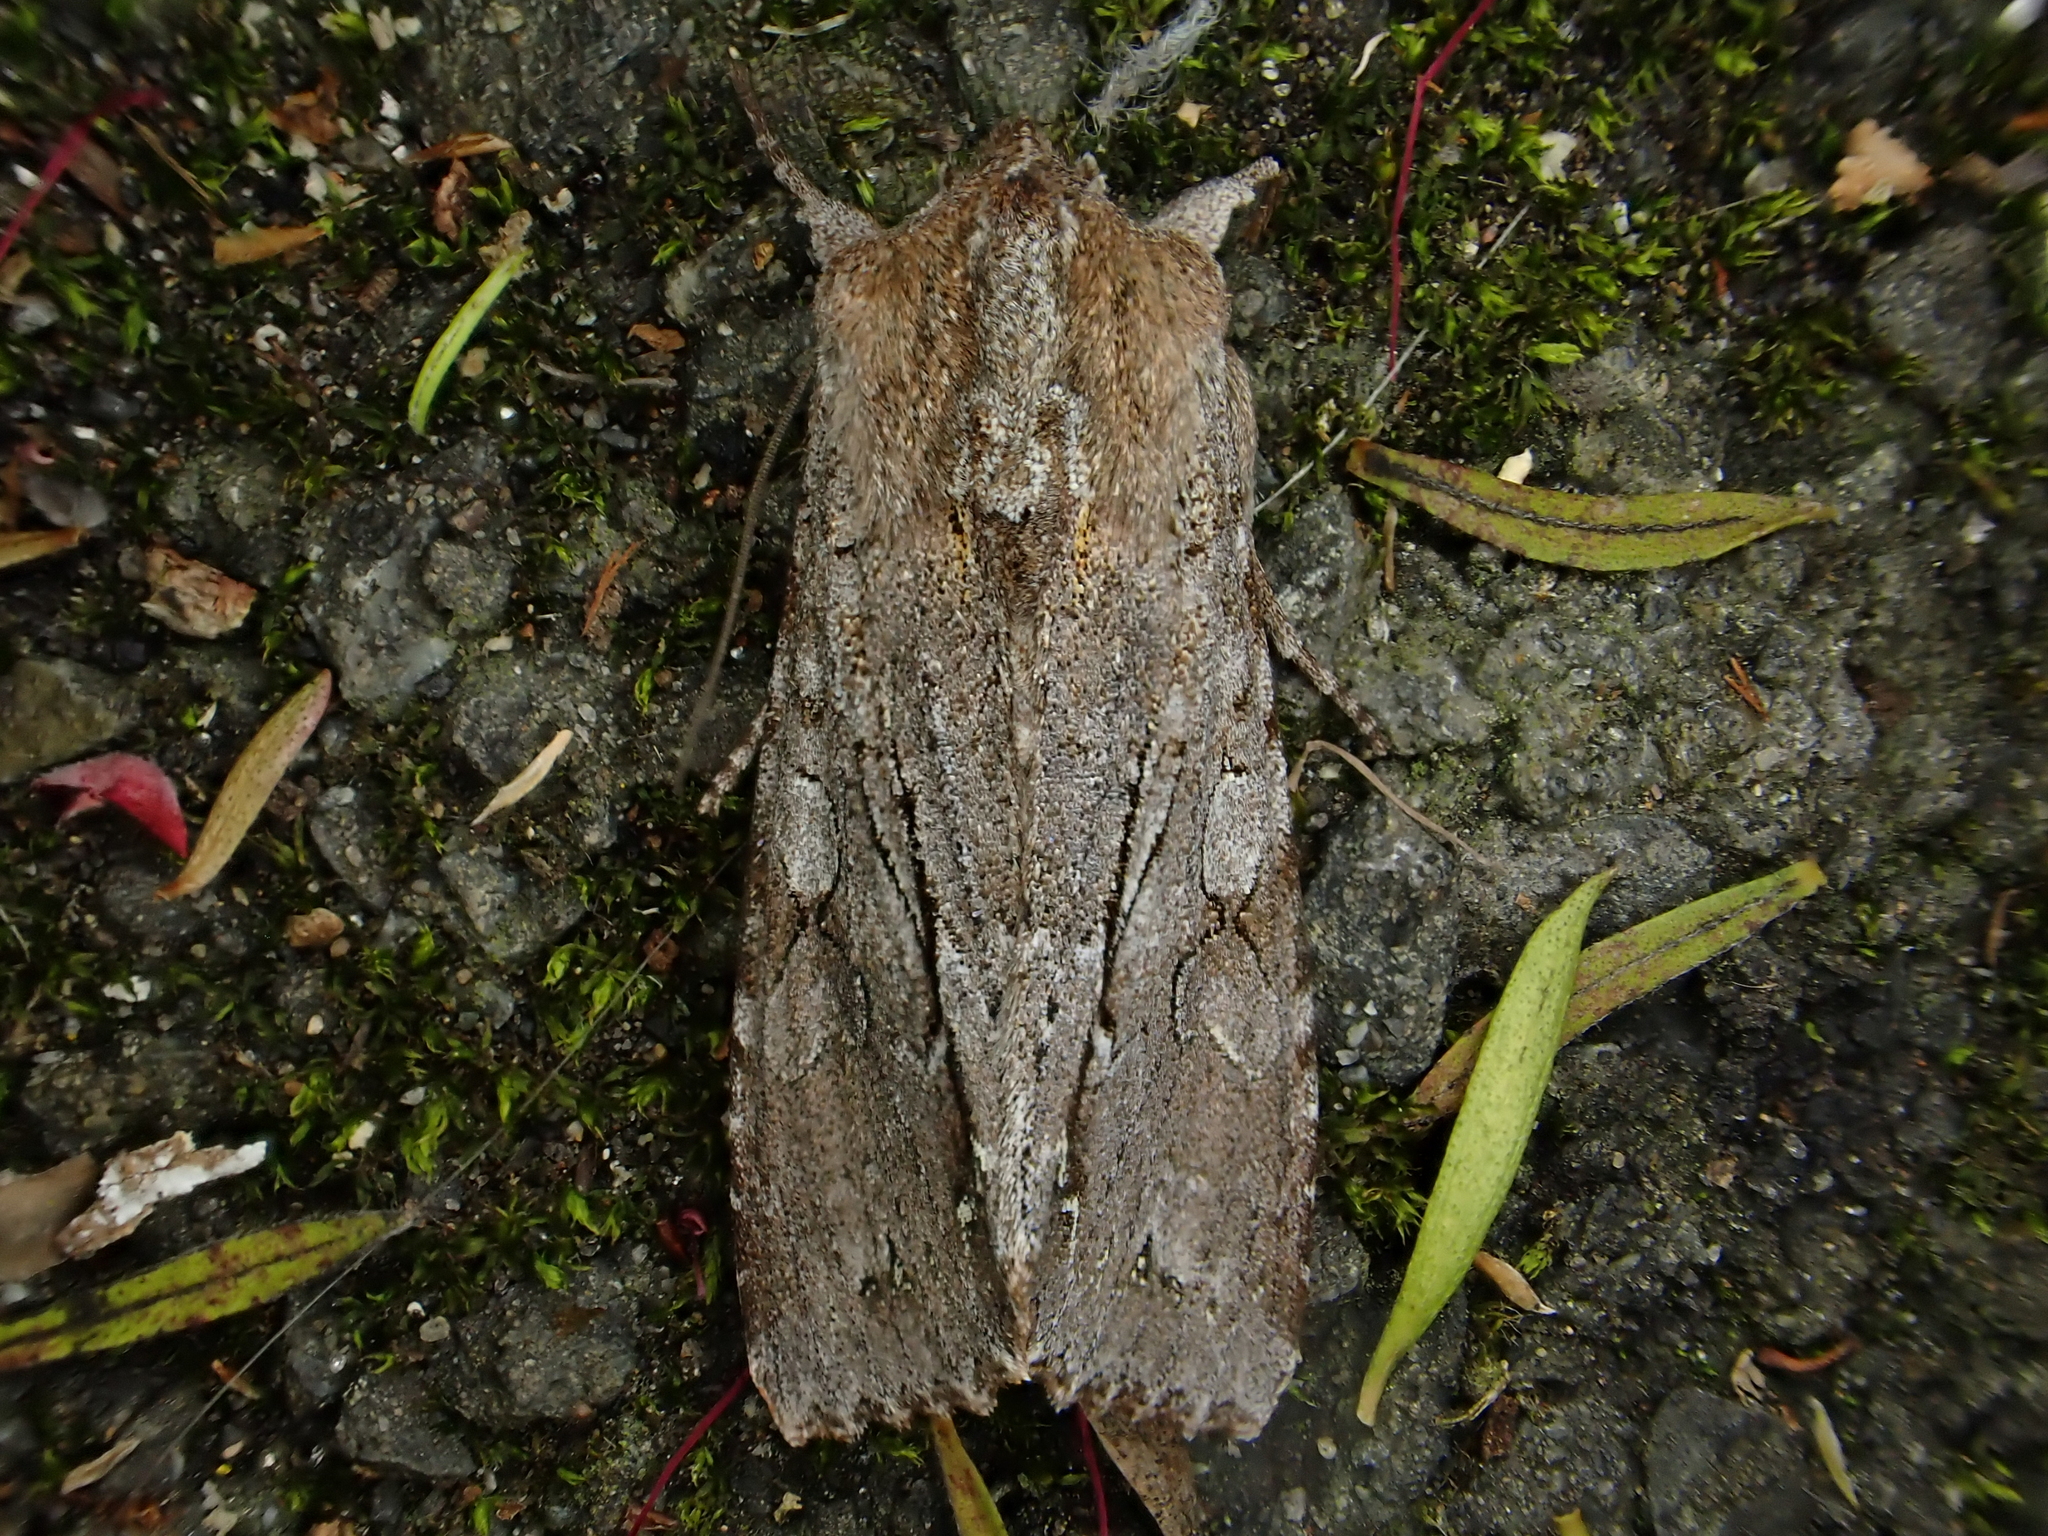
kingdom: Animalia
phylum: Arthropoda
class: Insecta
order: Lepidoptera
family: Noctuidae
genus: Ichneutica
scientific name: Ichneutica
